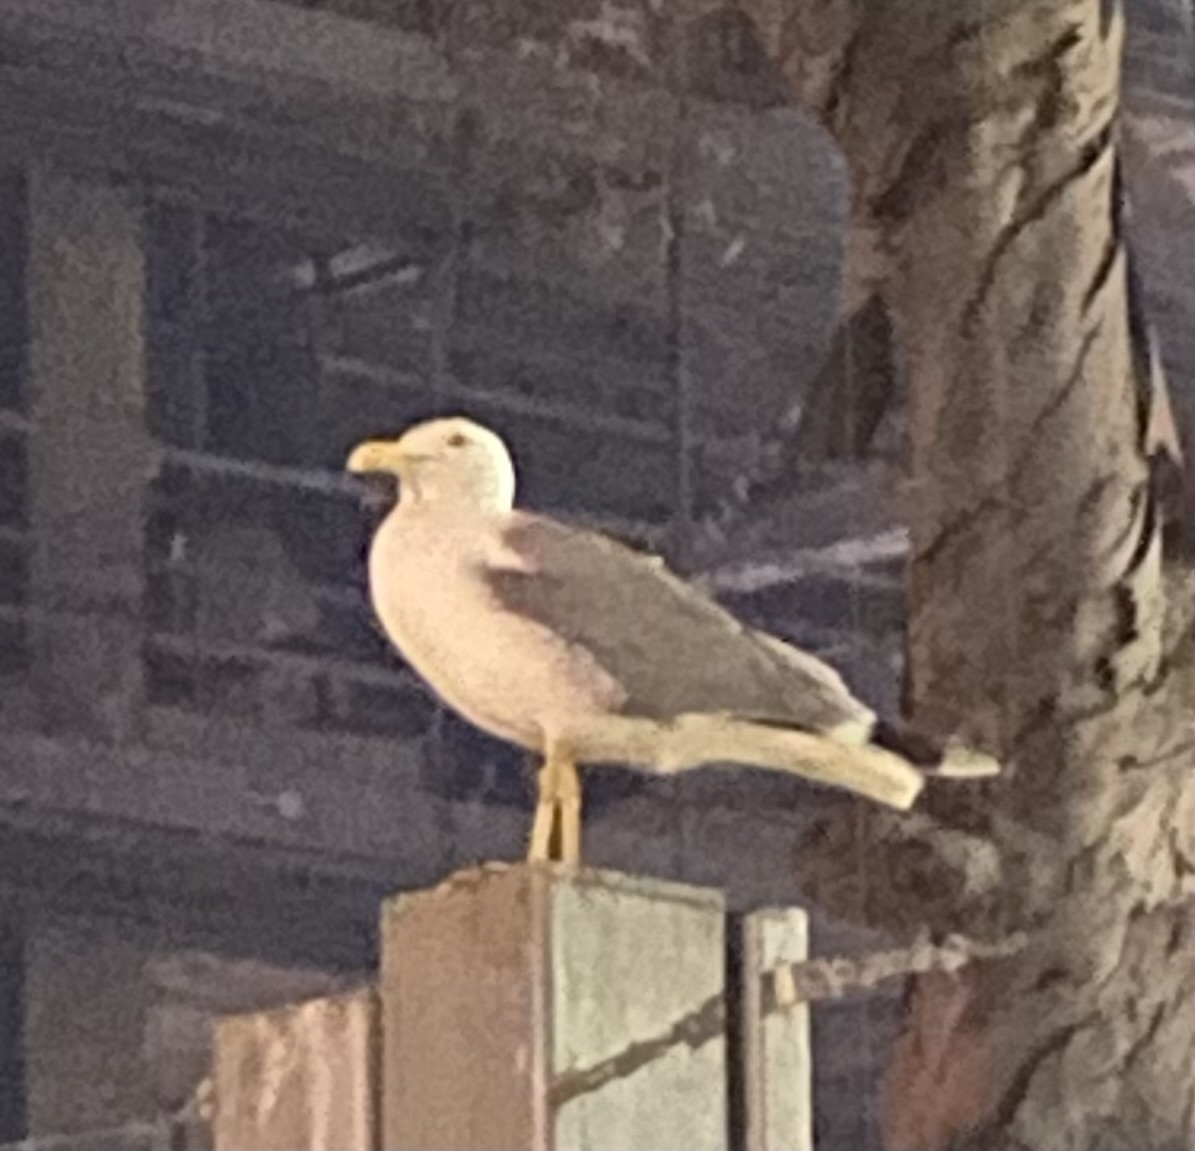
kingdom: Animalia
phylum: Chordata
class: Aves
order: Charadriiformes
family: Laridae
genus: Larus
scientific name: Larus michahellis
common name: Yellow-legged gull
